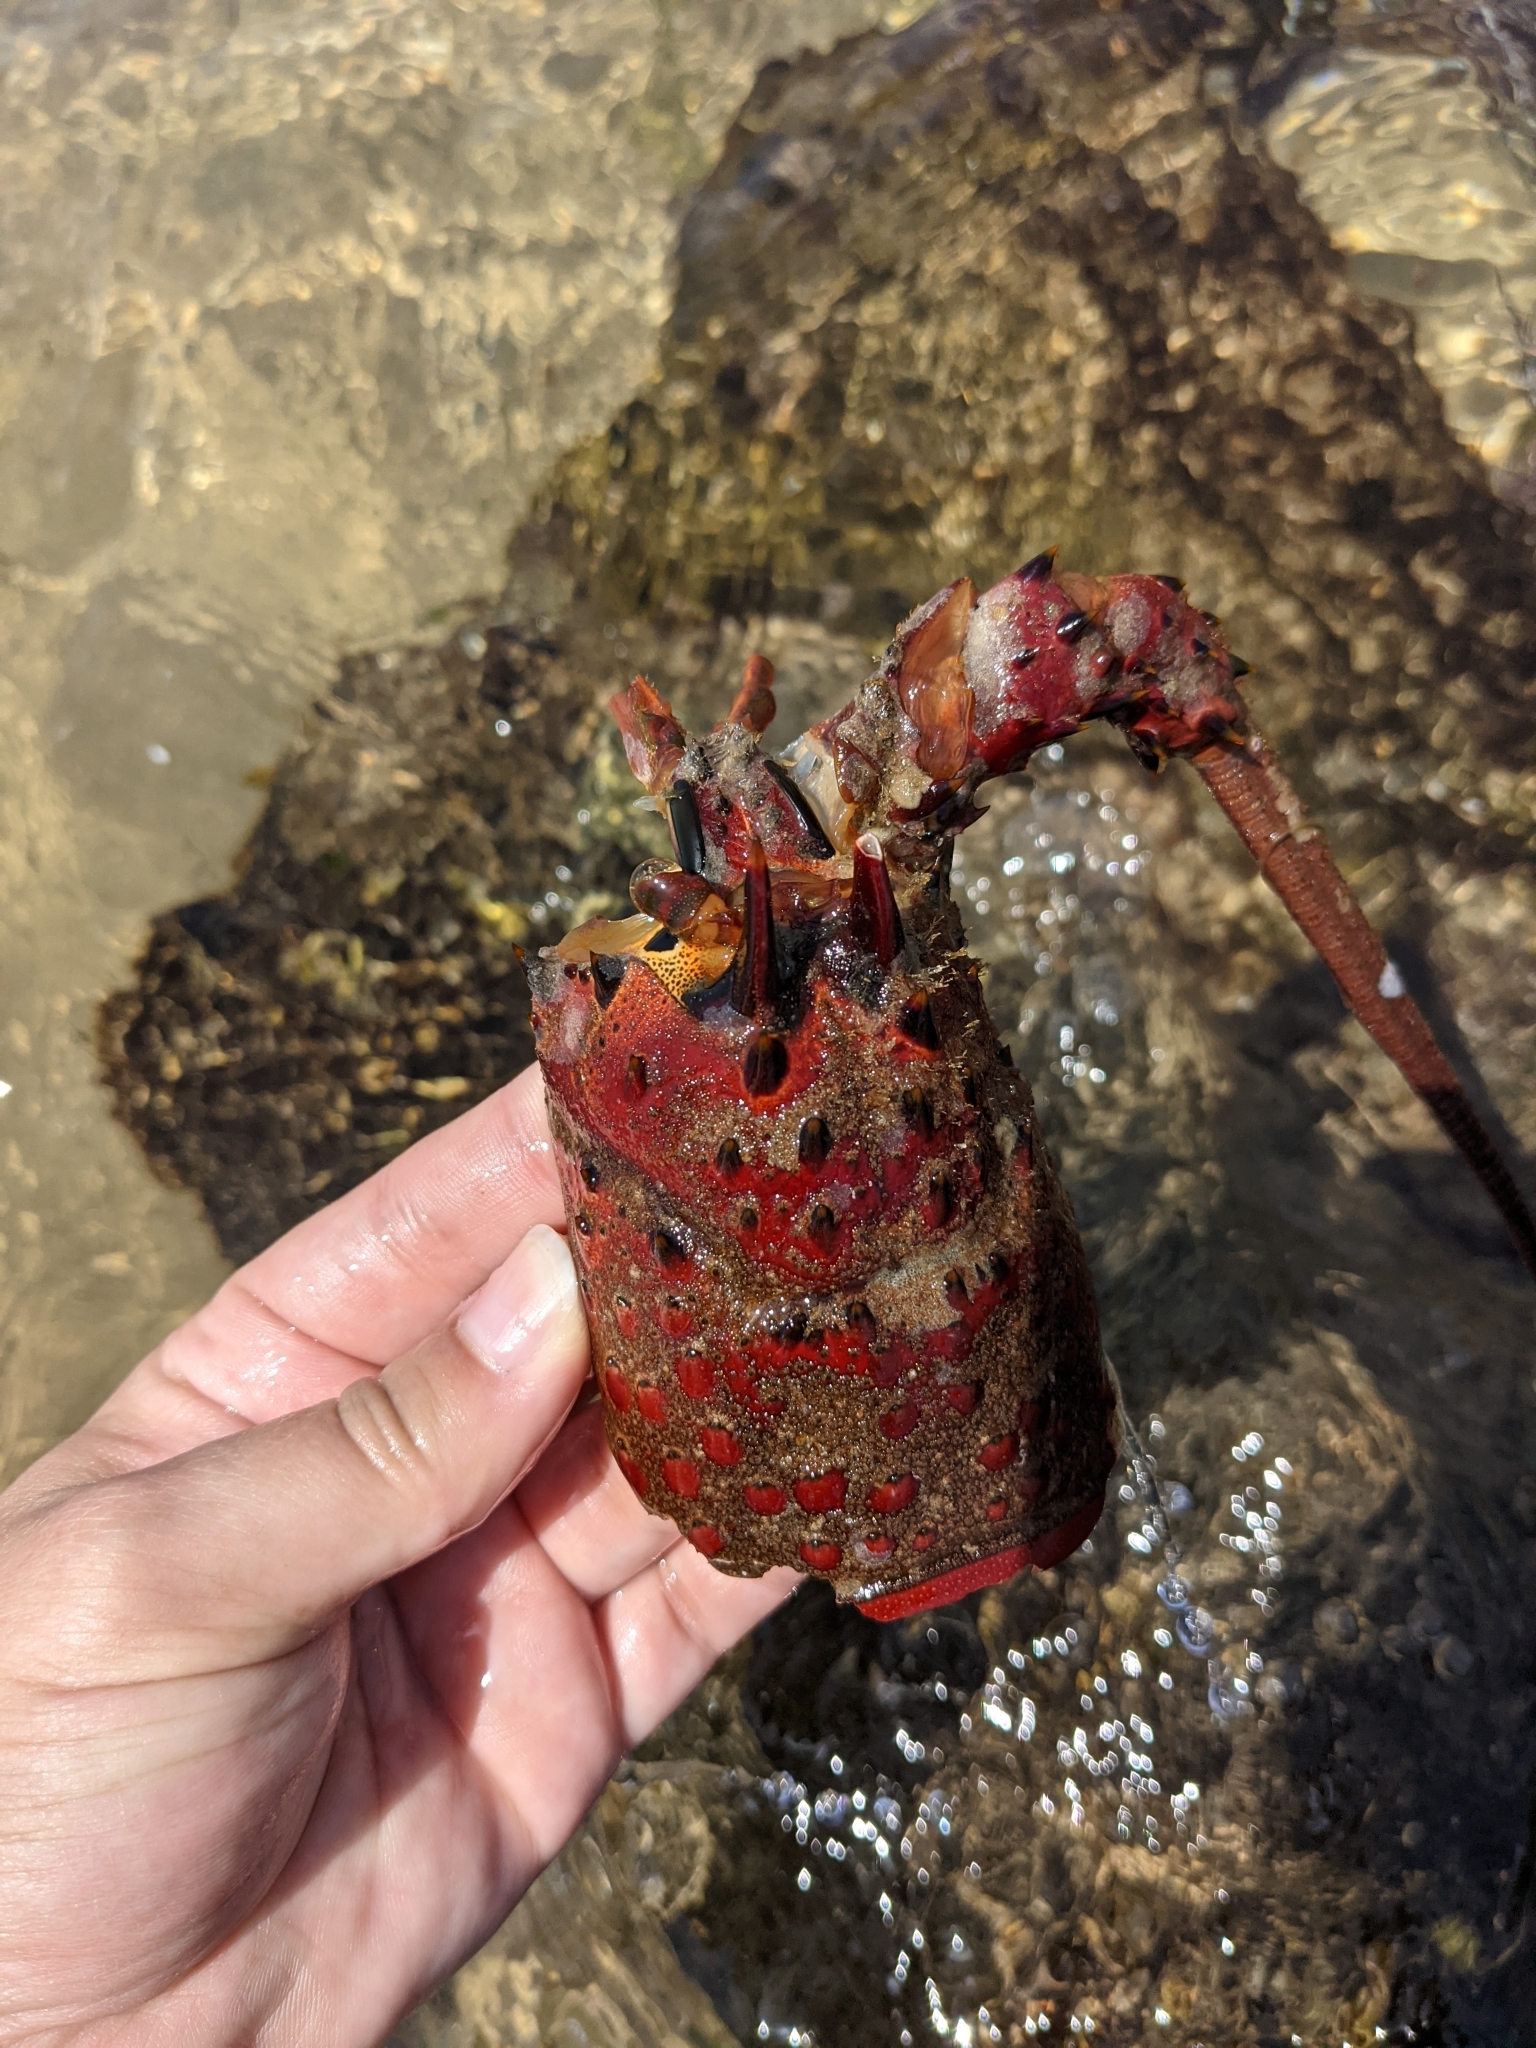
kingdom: Animalia
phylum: Arthropoda
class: Malacostraca
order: Decapoda
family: Palinuridae
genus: Panulirus
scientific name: Panulirus interruptus
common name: California spiny lobster
